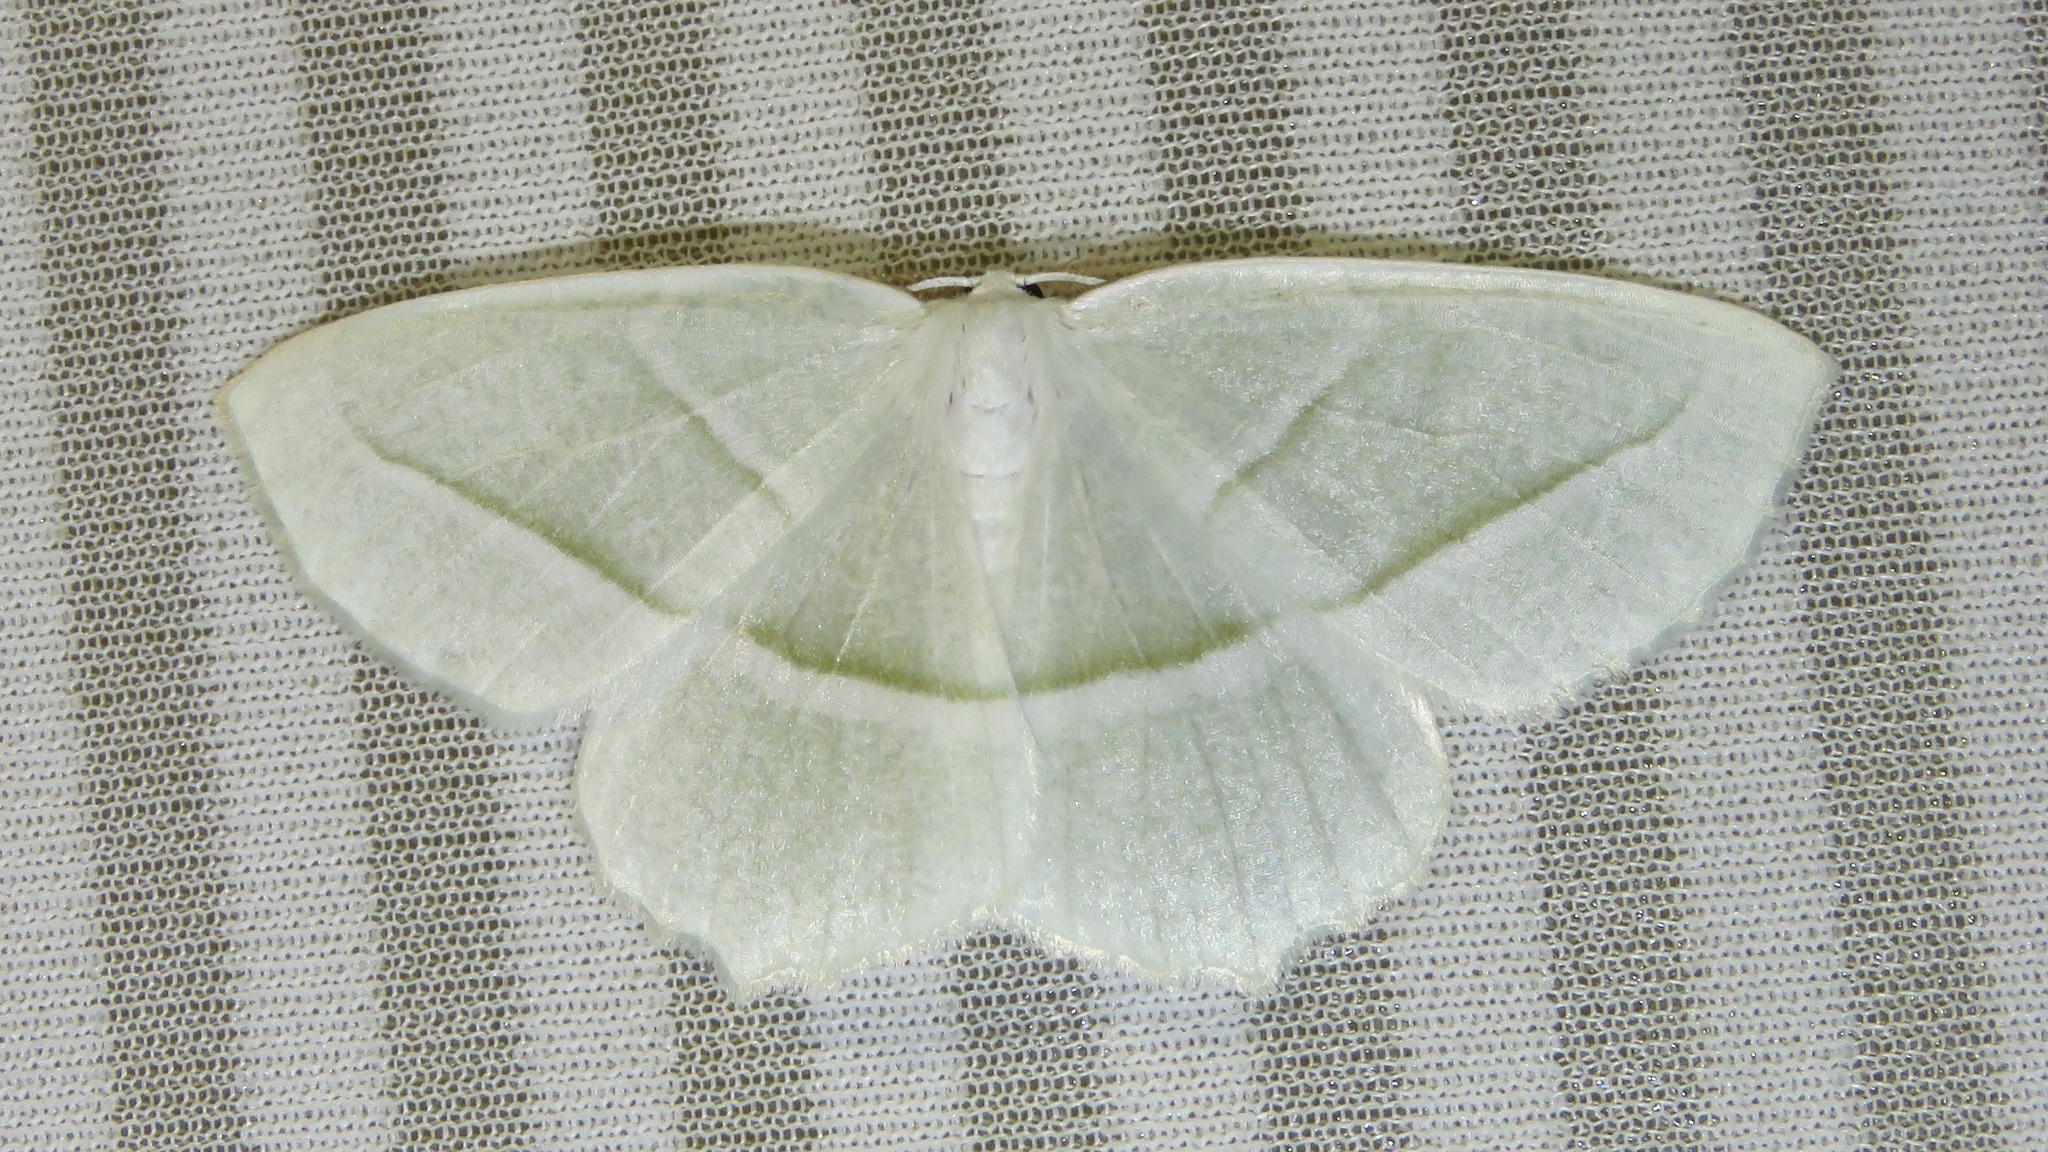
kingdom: Animalia
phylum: Arthropoda
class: Insecta
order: Lepidoptera
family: Geometridae
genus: Campaea
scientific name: Campaea perlata
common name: Fringed looper
